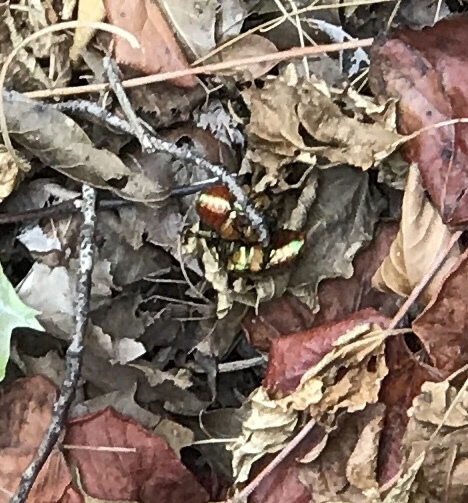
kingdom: Animalia
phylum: Arthropoda
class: Insecta
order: Coleoptera
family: Scarabaeidae
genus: Cotinis
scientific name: Cotinis nitida
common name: Common green june beetle
